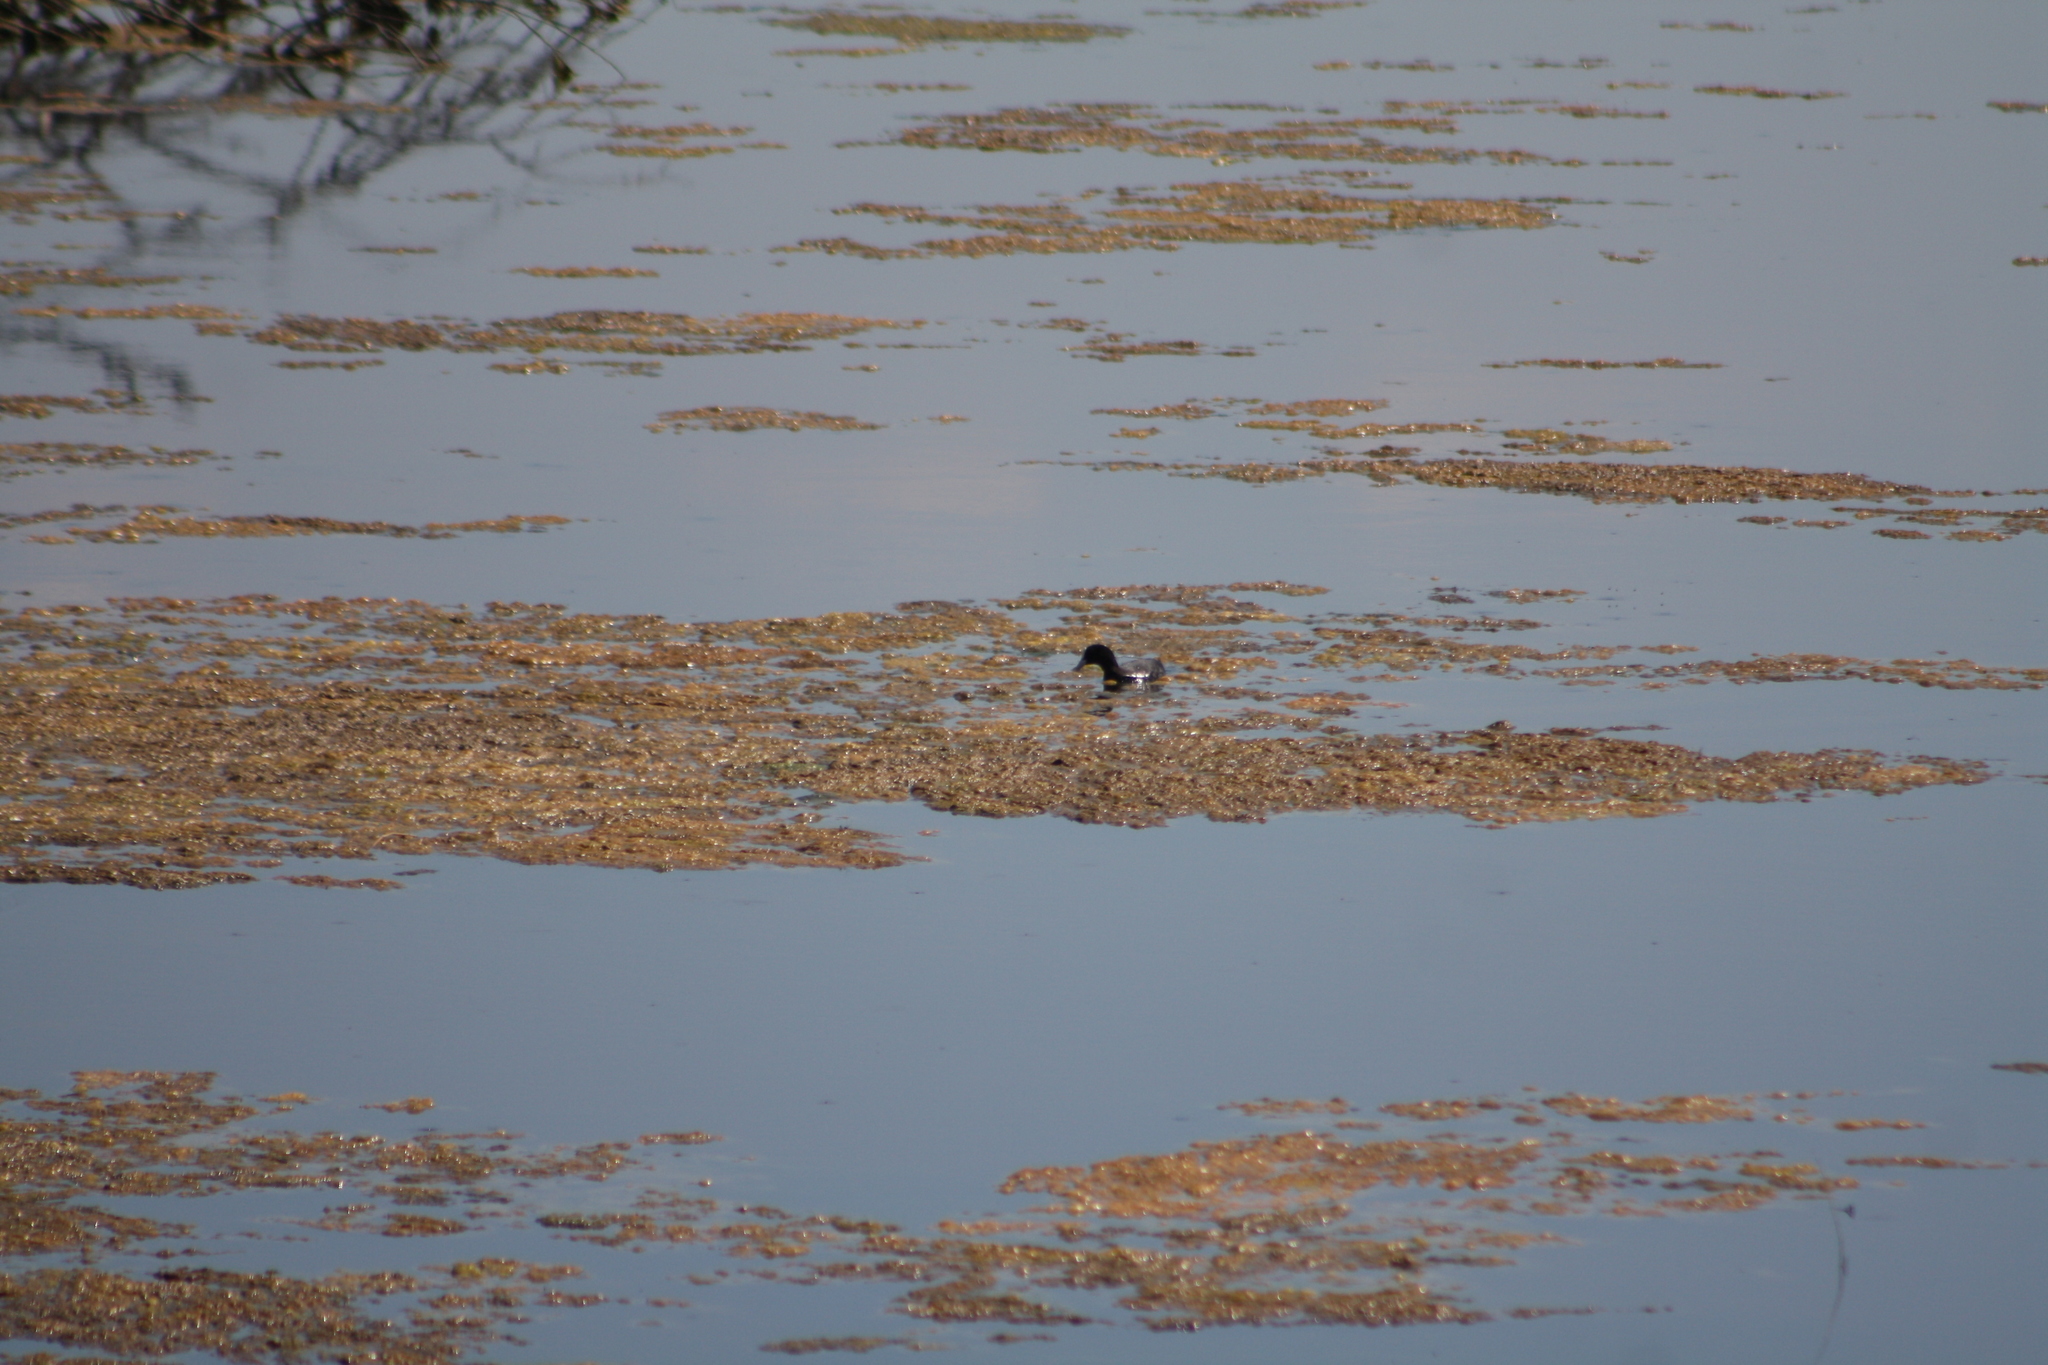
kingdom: Animalia
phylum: Chordata
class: Aves
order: Gruiformes
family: Rallidae
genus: Fulica
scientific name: Fulica atra
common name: Eurasian coot
